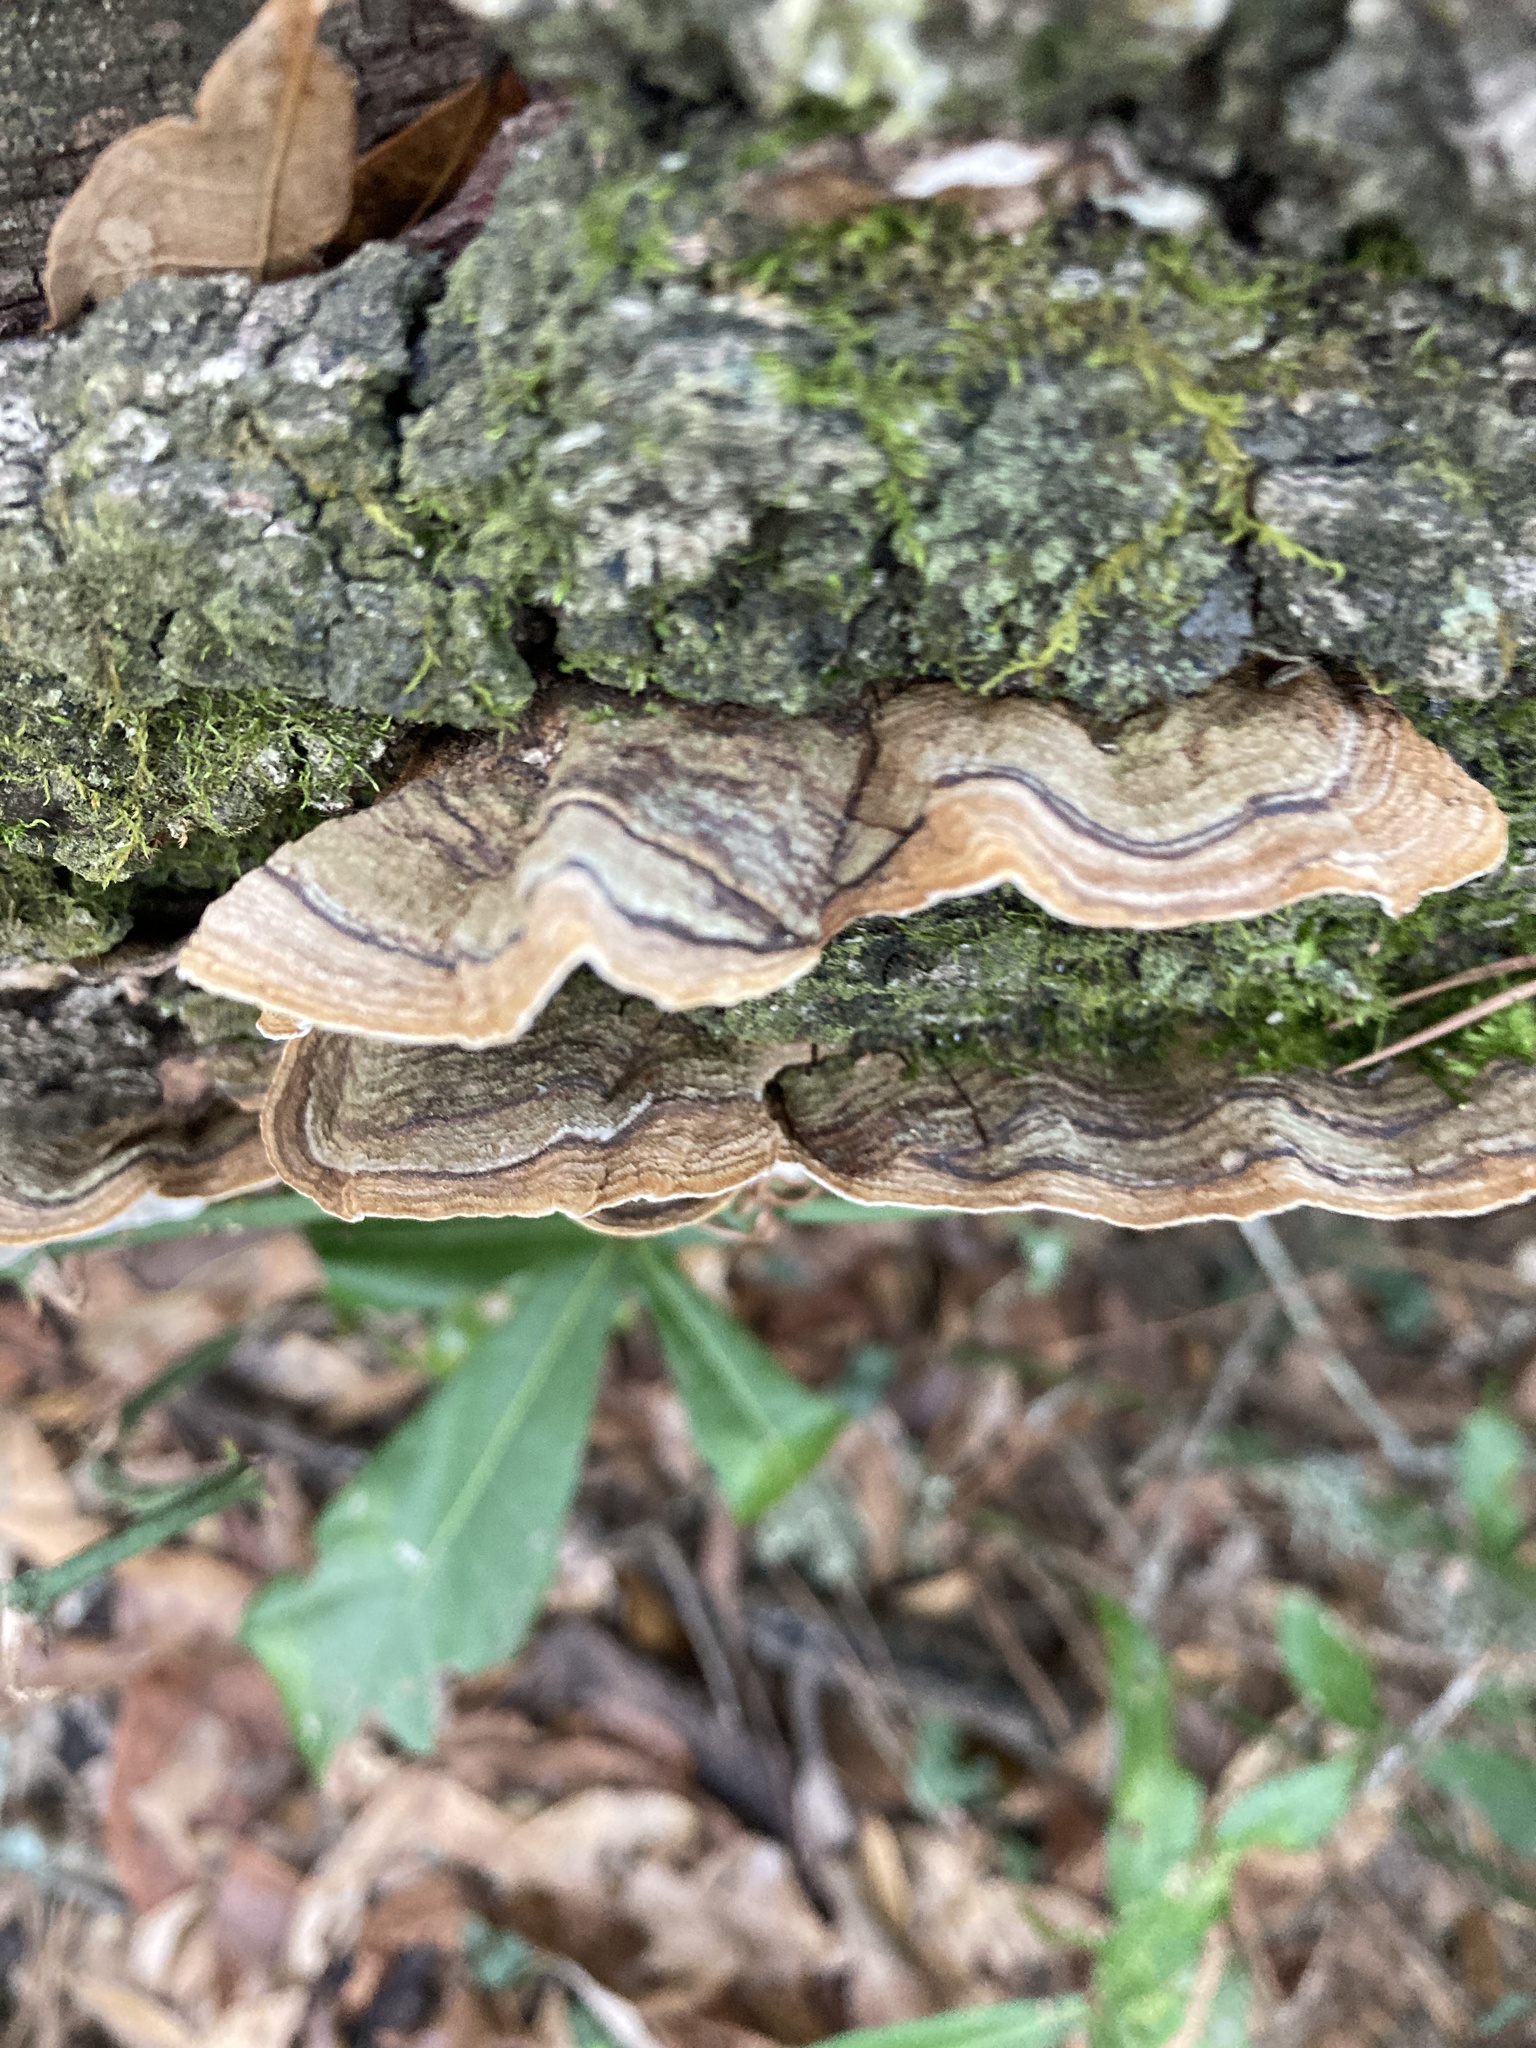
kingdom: Fungi
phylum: Basidiomycota
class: Agaricomycetes
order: Russulales
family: Stereaceae
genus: Xylobolus
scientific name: Xylobolus subpileatus
